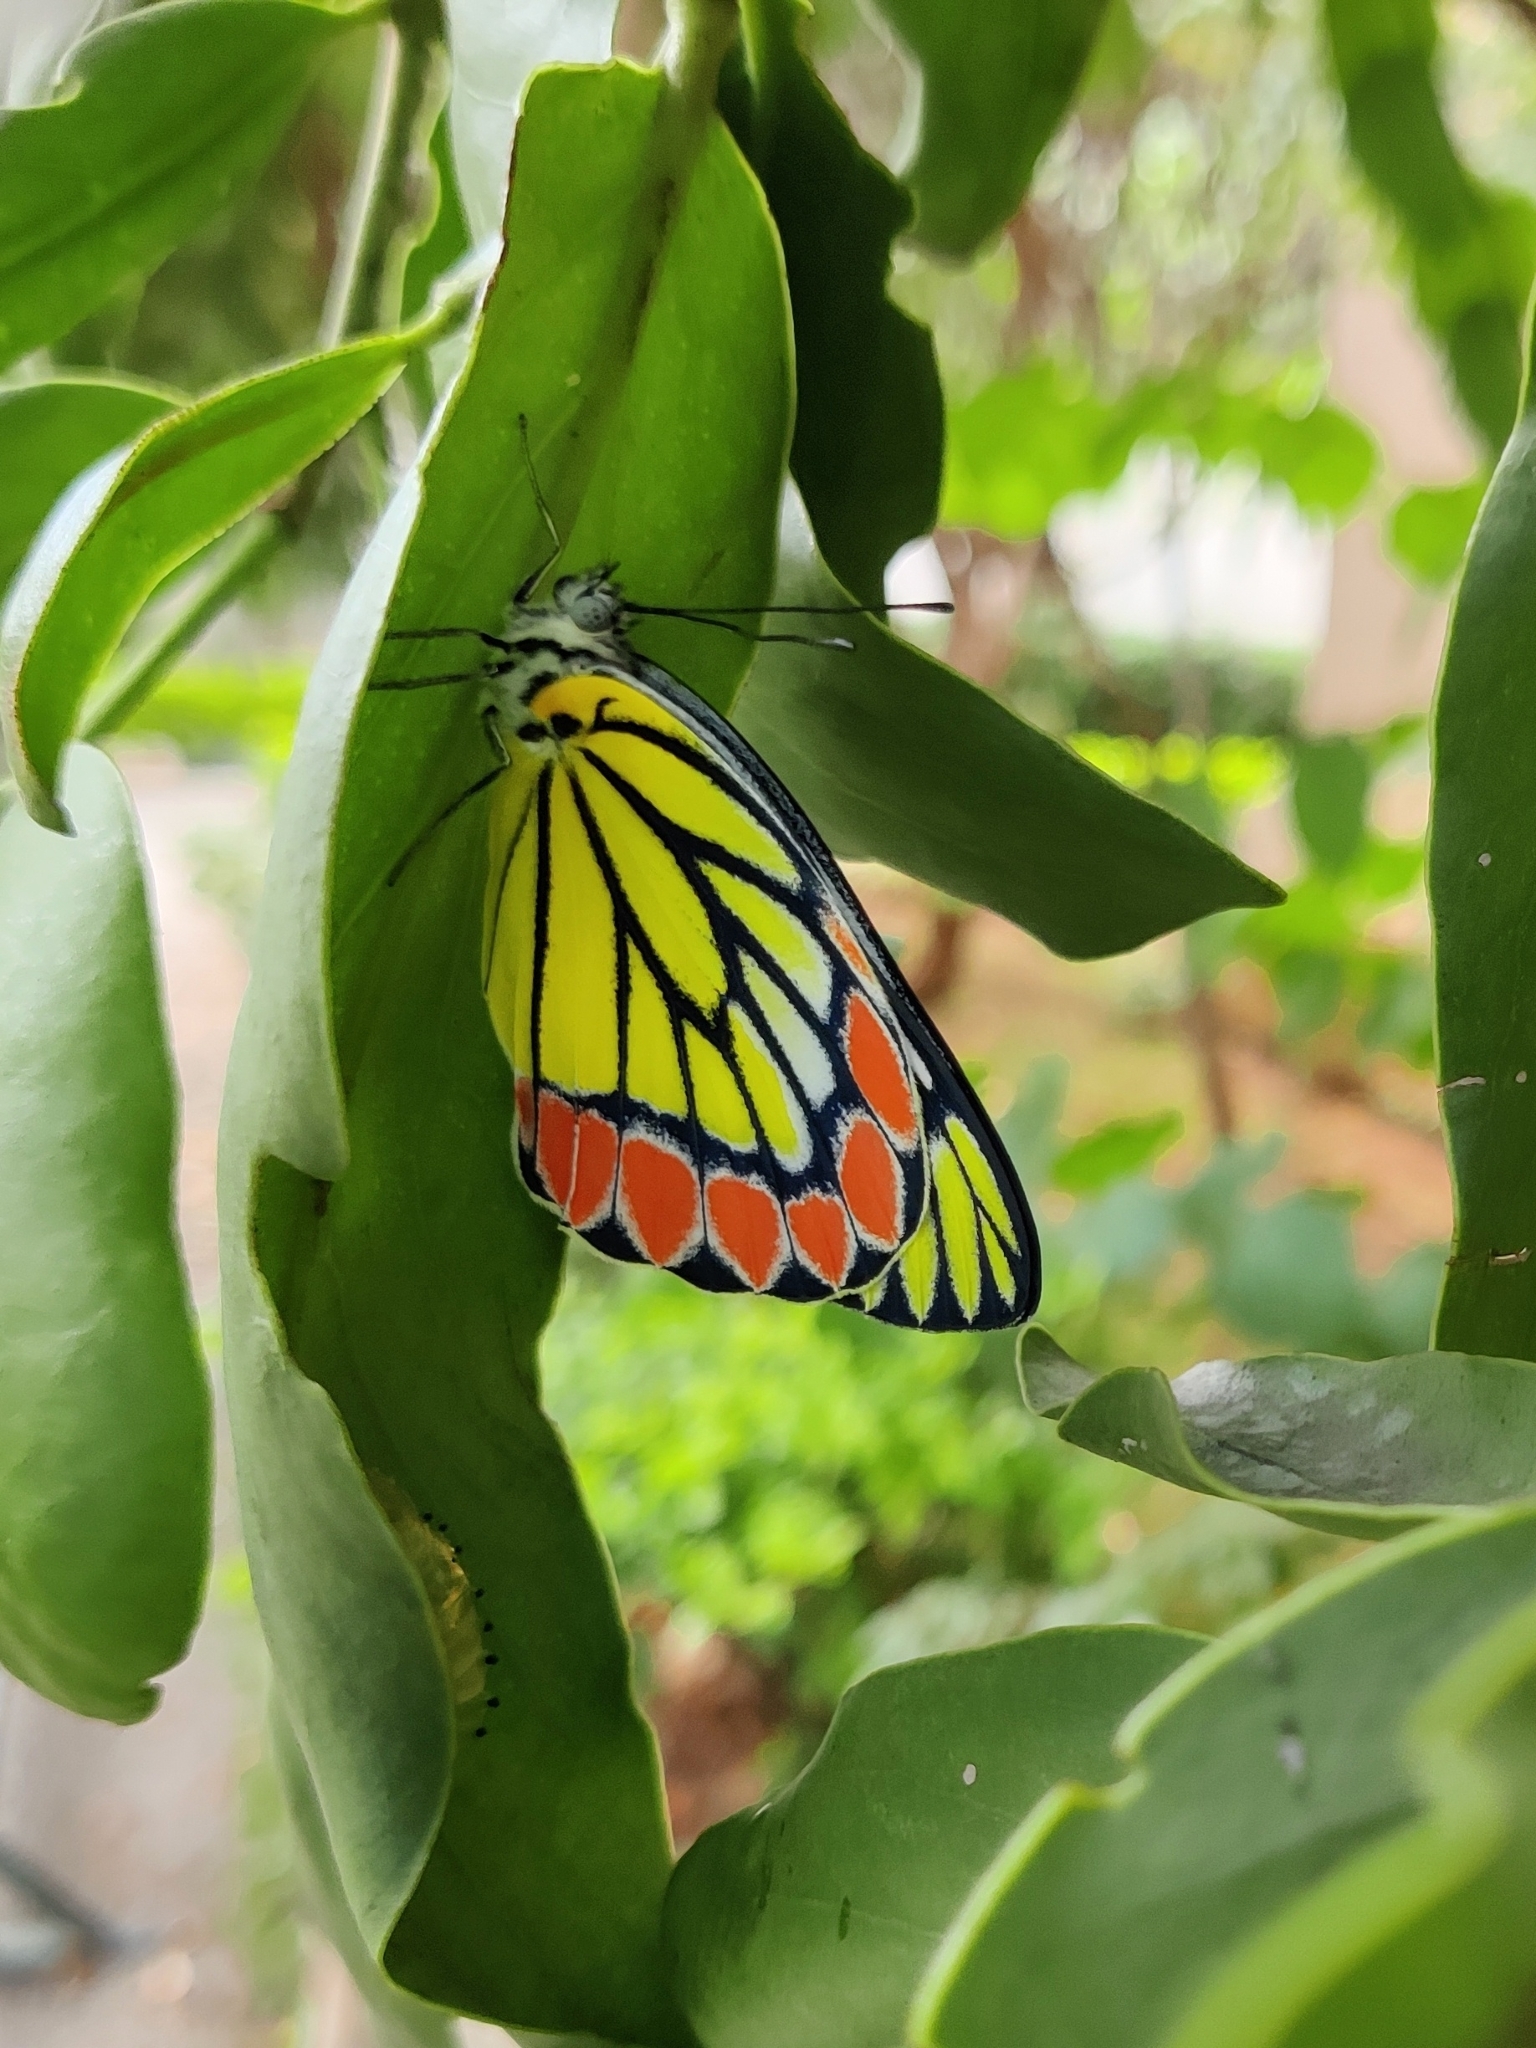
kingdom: Animalia
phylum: Arthropoda
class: Insecta
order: Lepidoptera
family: Pieridae
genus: Delias
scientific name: Delias eucharis
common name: Common jezebel
